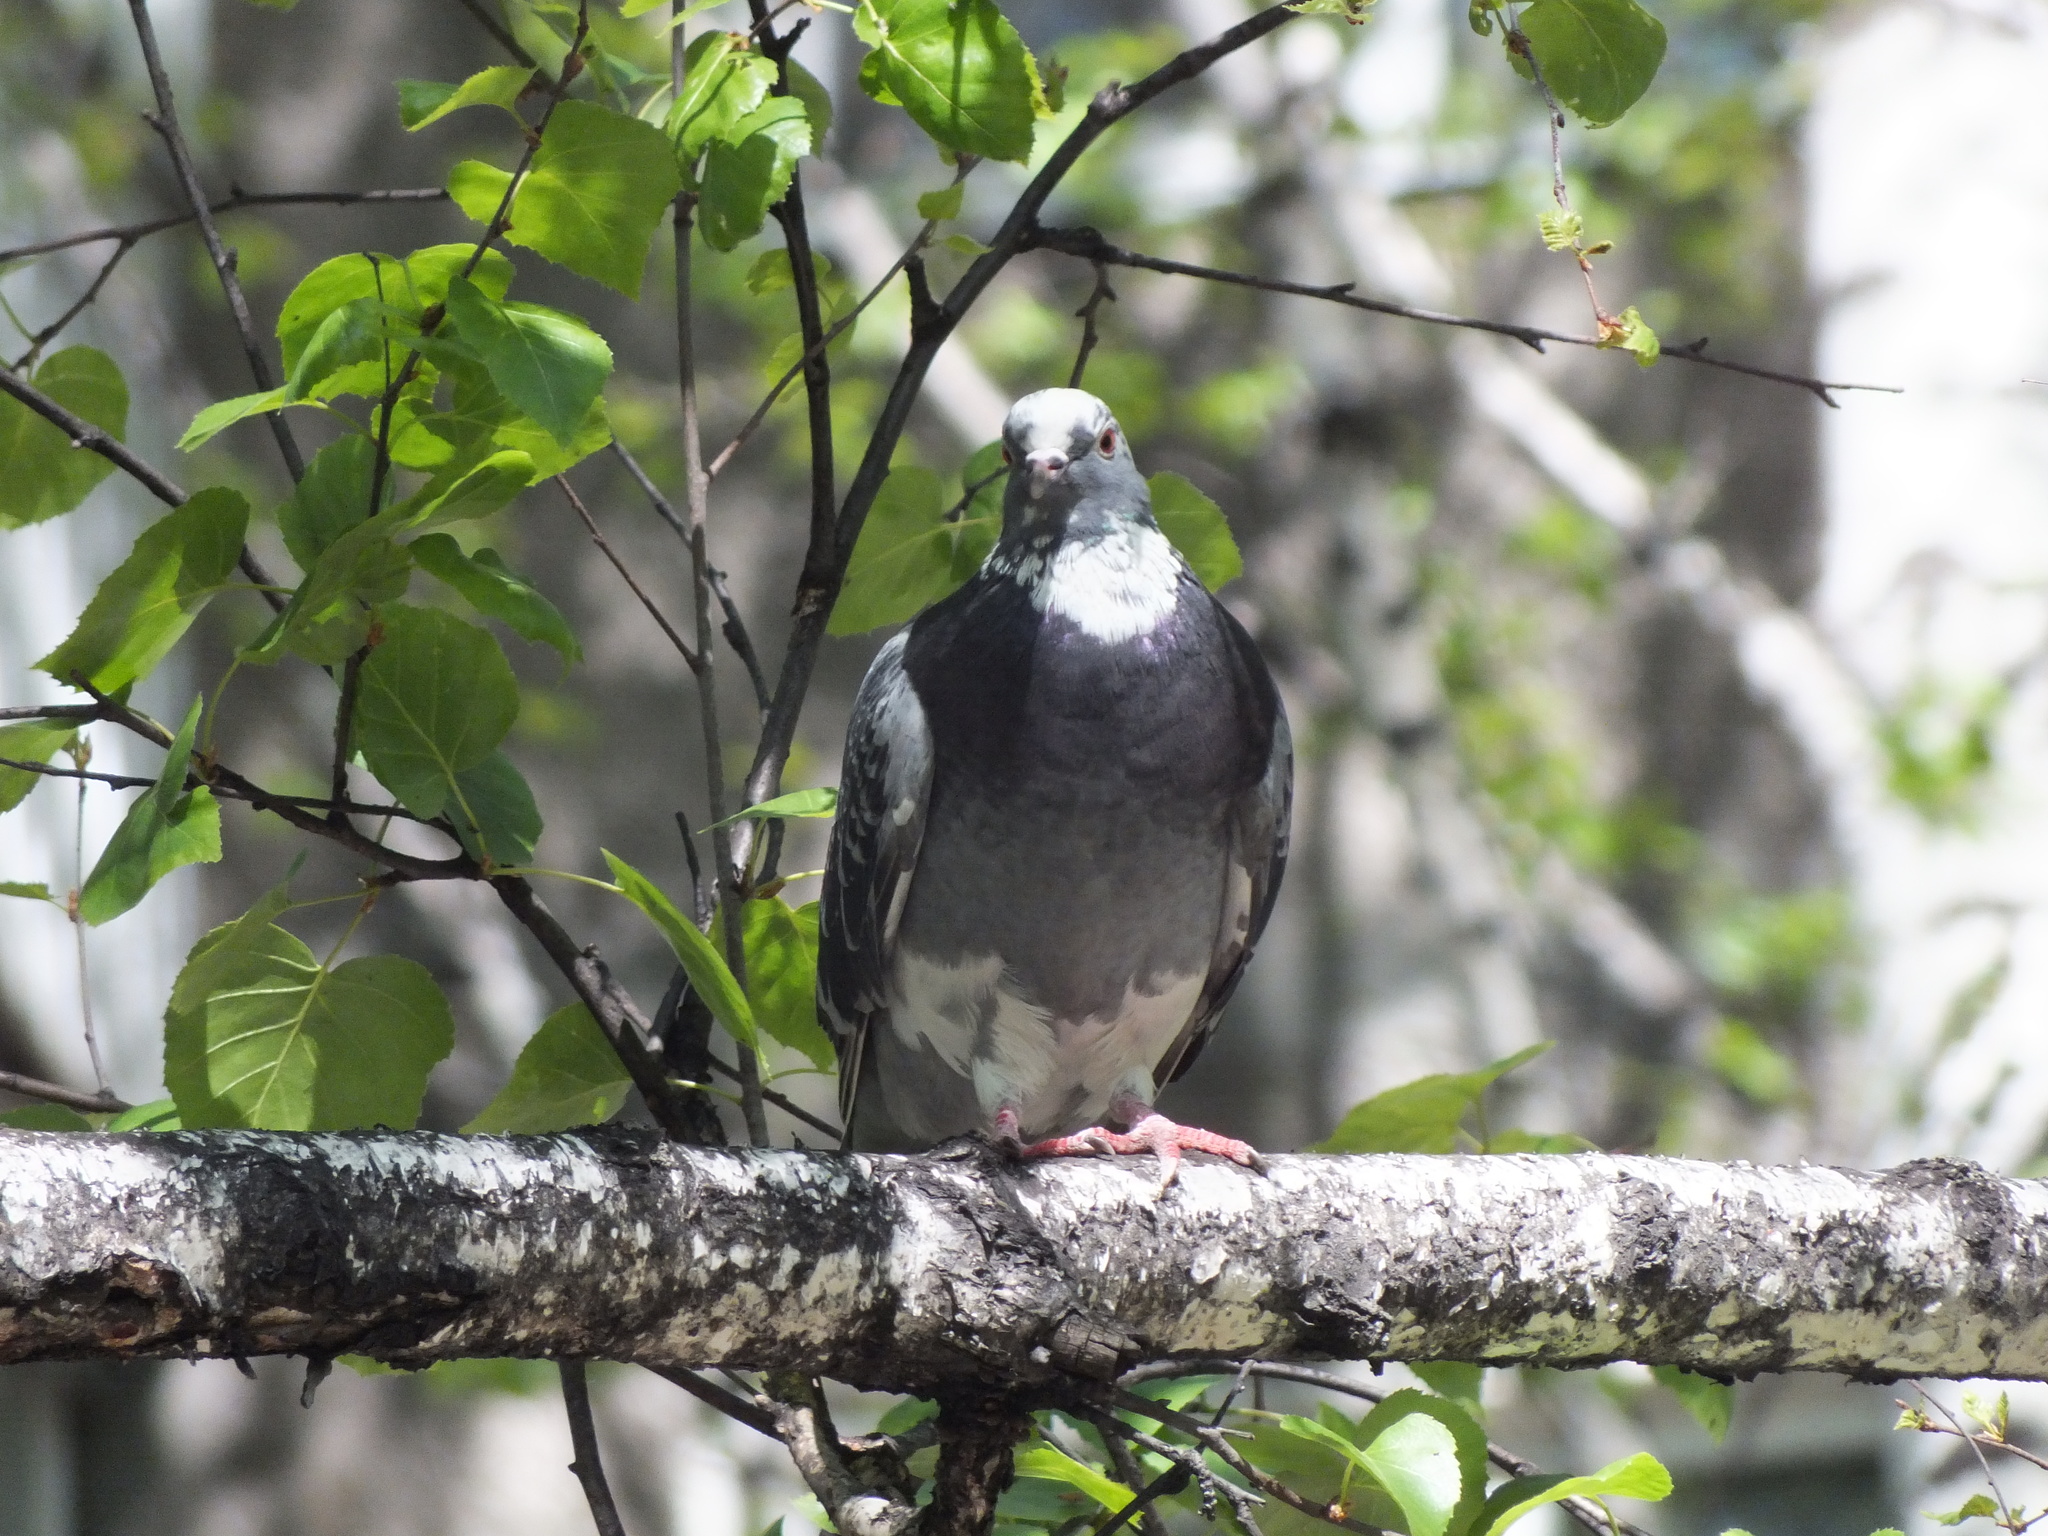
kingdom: Animalia
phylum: Chordata
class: Aves
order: Columbiformes
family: Columbidae
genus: Columba
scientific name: Columba livia
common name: Rock pigeon
